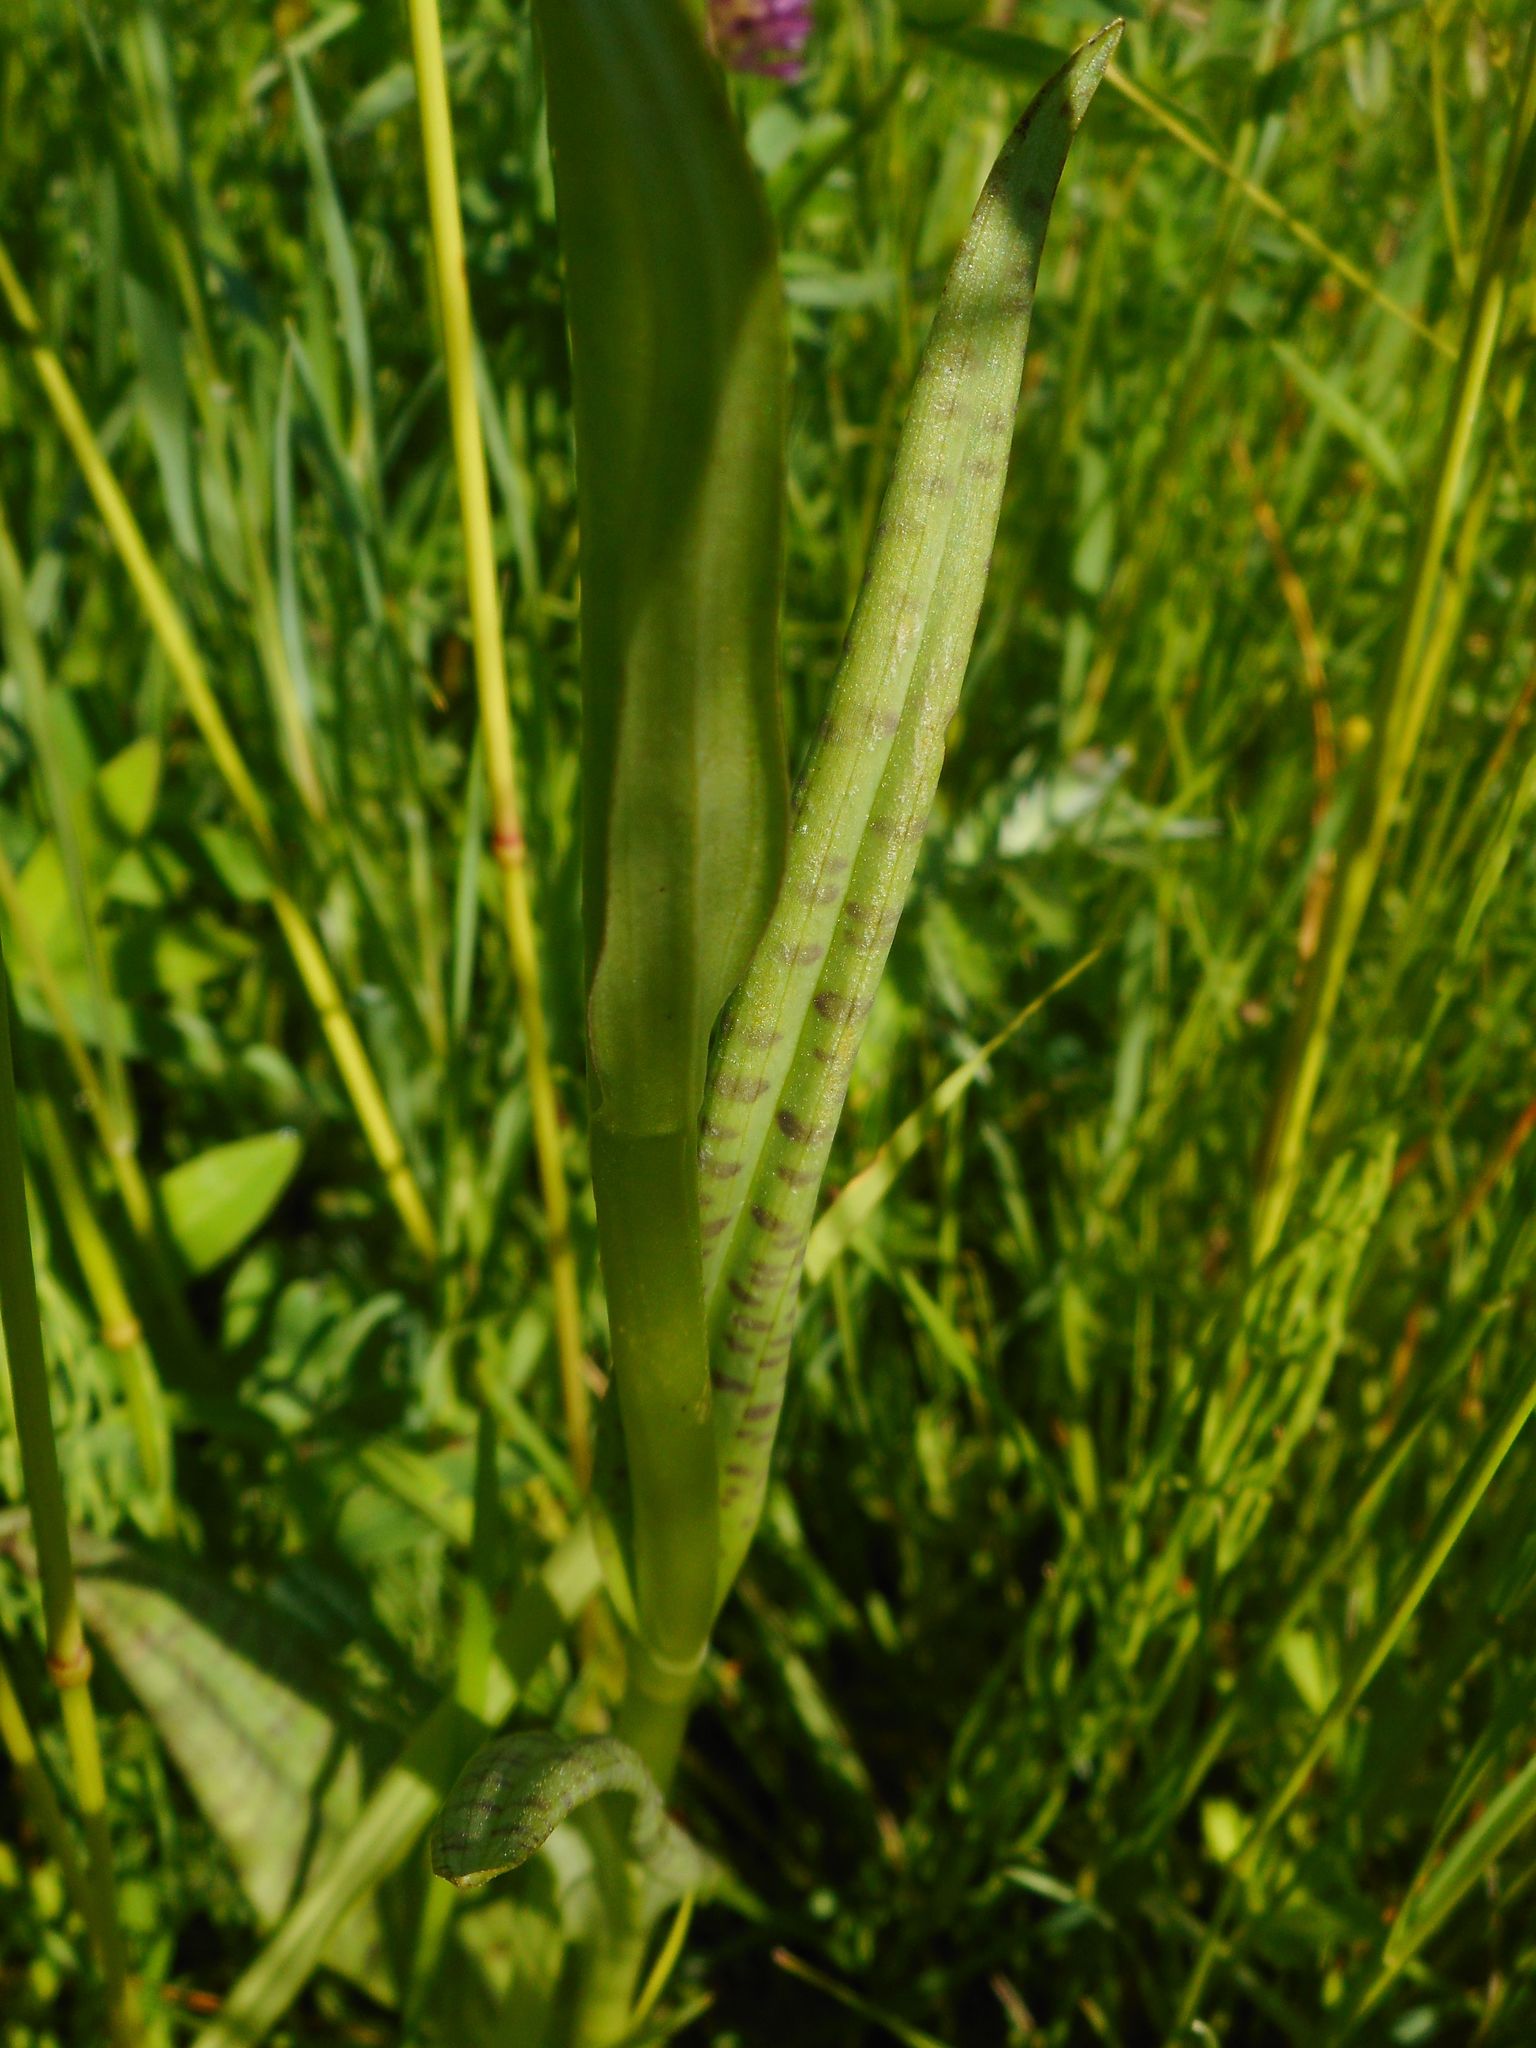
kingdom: Plantae
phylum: Tracheophyta
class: Liliopsida
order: Asparagales
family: Orchidaceae
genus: Dactylorhiza
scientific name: Dactylorhiza majalis
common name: Marsh orchid
